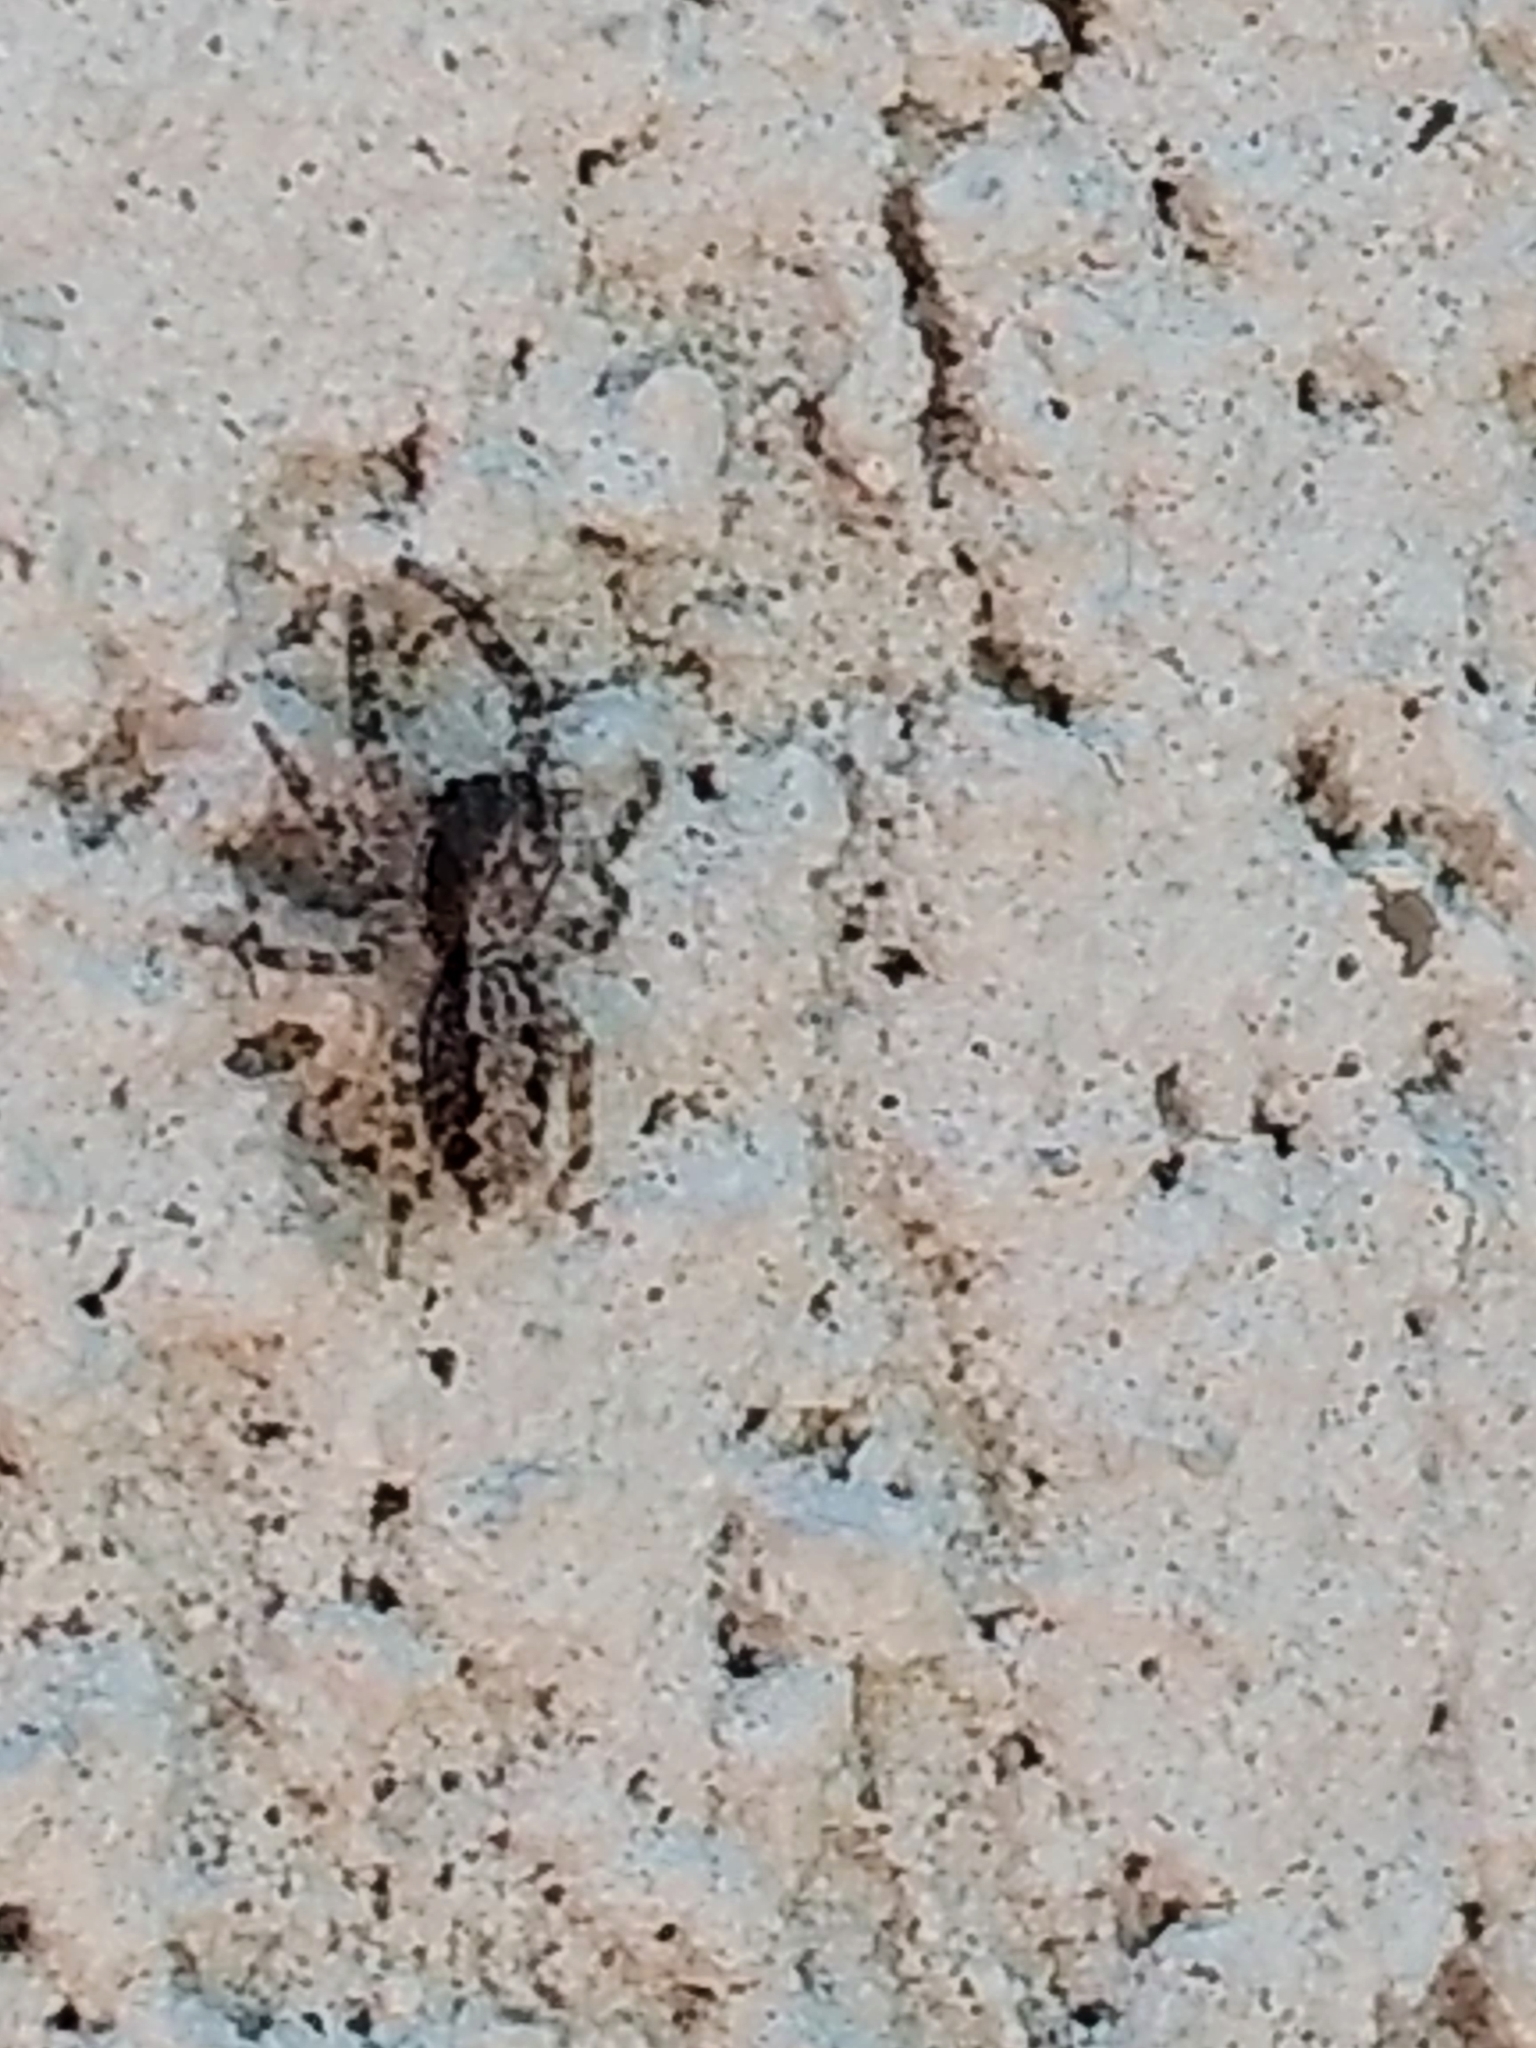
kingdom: Animalia
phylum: Arthropoda
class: Arachnida
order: Araneae
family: Salticidae
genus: Platycryptus
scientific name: Platycryptus californicus
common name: Jumping spiders
